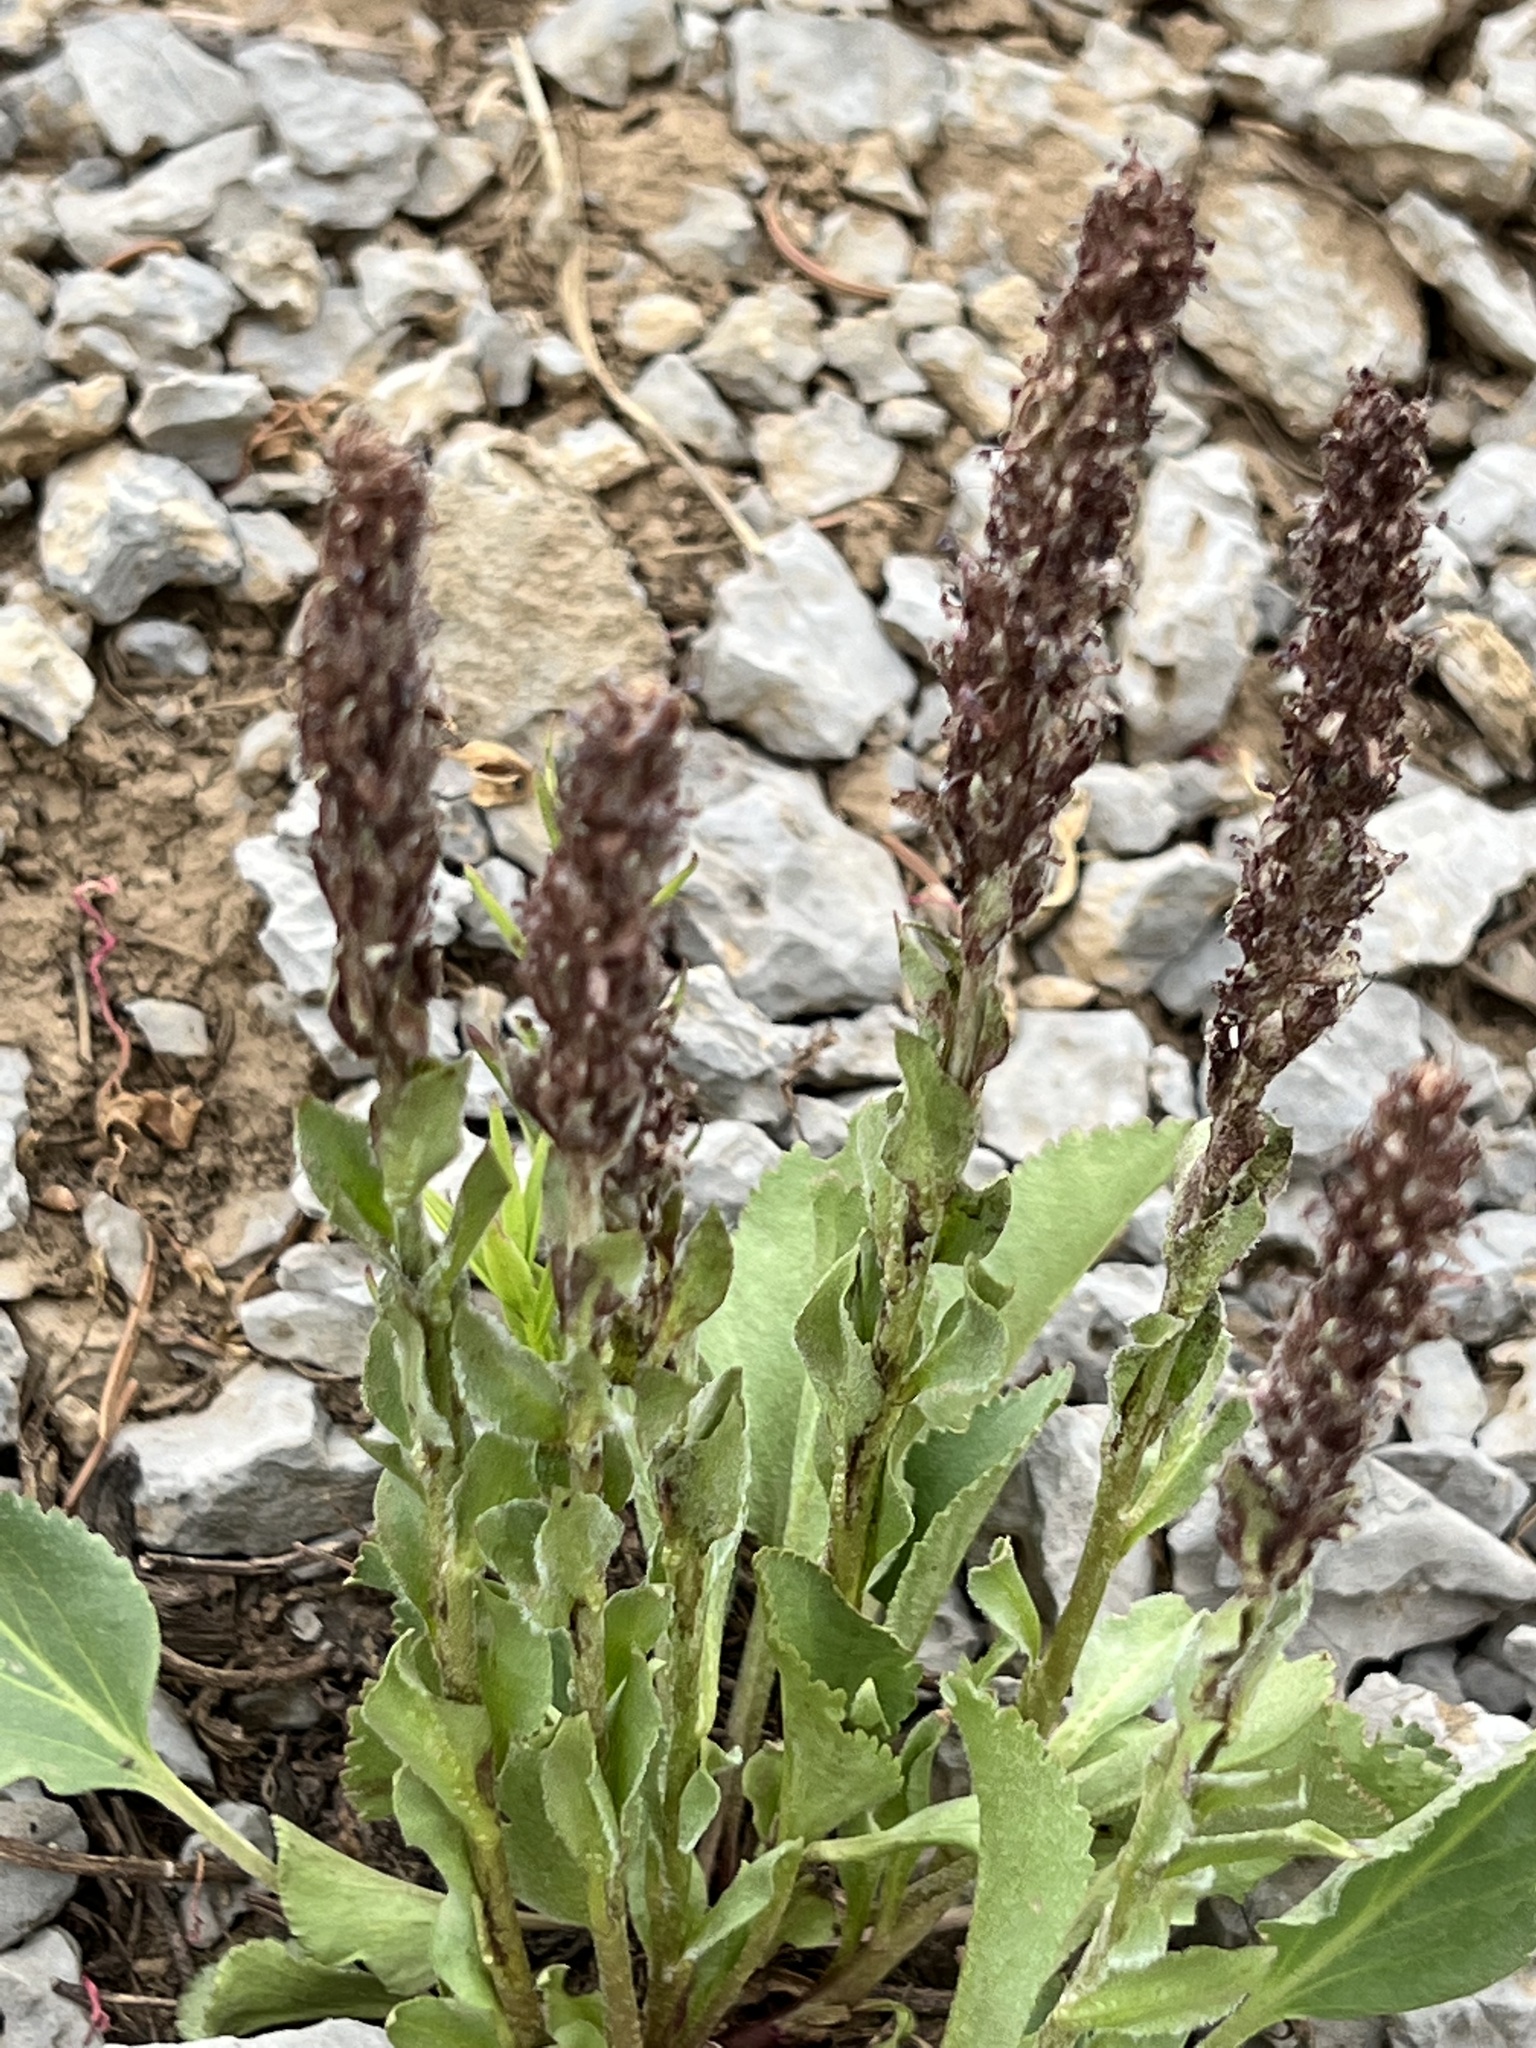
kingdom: Plantae
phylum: Tracheophyta
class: Magnoliopsida
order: Lamiales
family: Plantaginaceae
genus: Synthyris
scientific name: Synthyris wyomingensis
